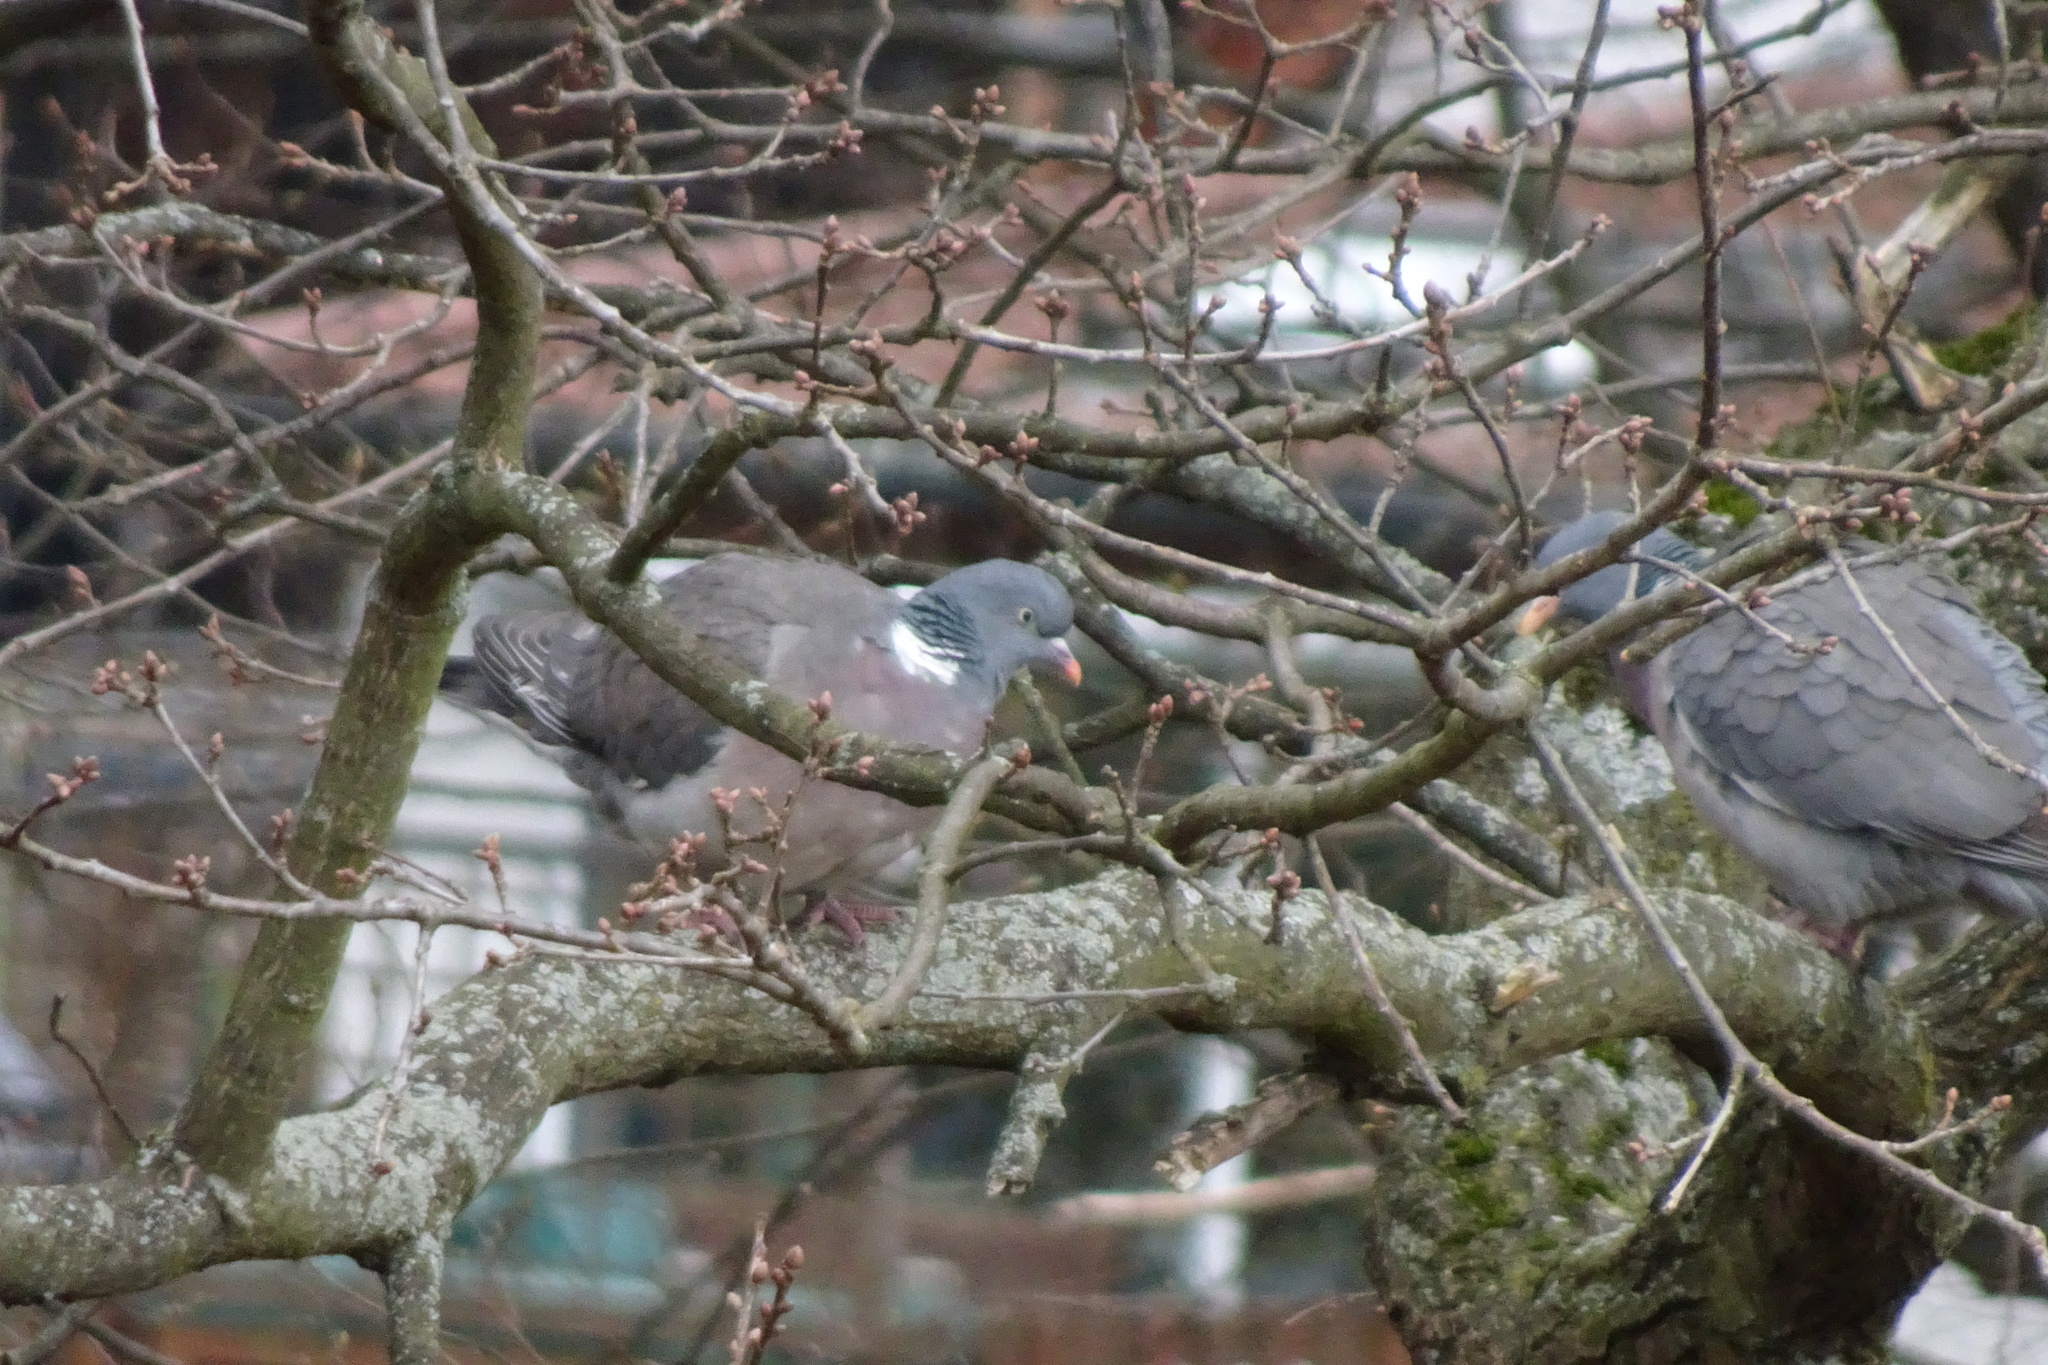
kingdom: Animalia
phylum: Chordata
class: Aves
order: Columbiformes
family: Columbidae
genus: Columba
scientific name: Columba palumbus
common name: Common wood pigeon
